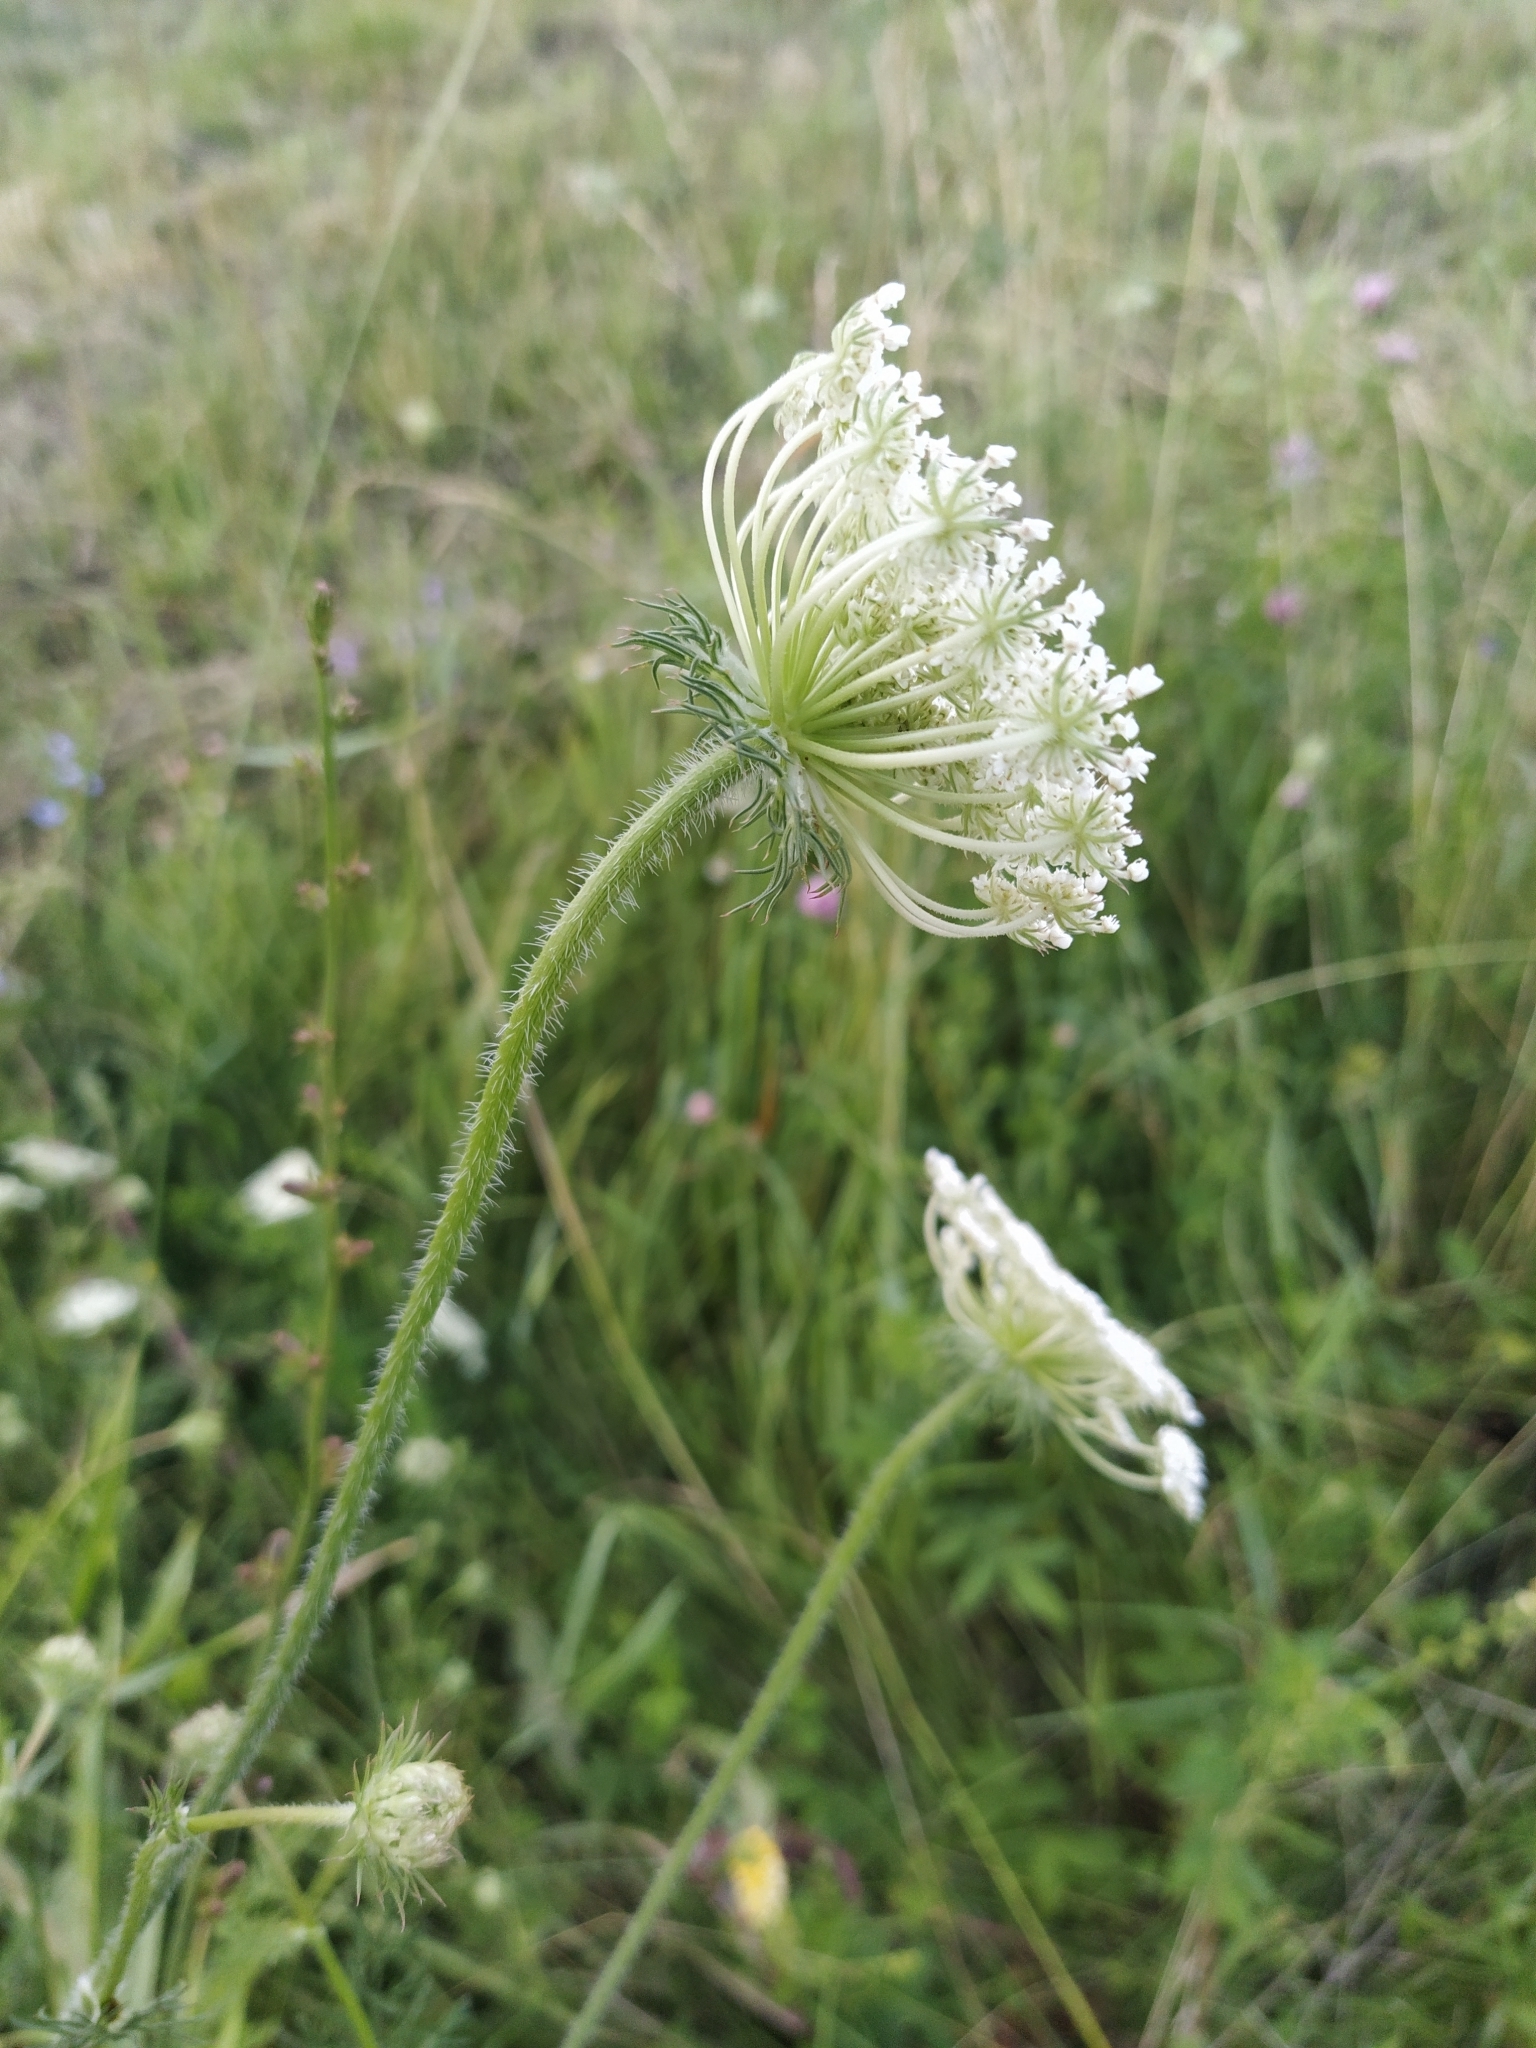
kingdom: Plantae
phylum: Tracheophyta
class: Magnoliopsida
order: Apiales
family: Apiaceae
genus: Daucus
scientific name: Daucus carota
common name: Wild carrot
